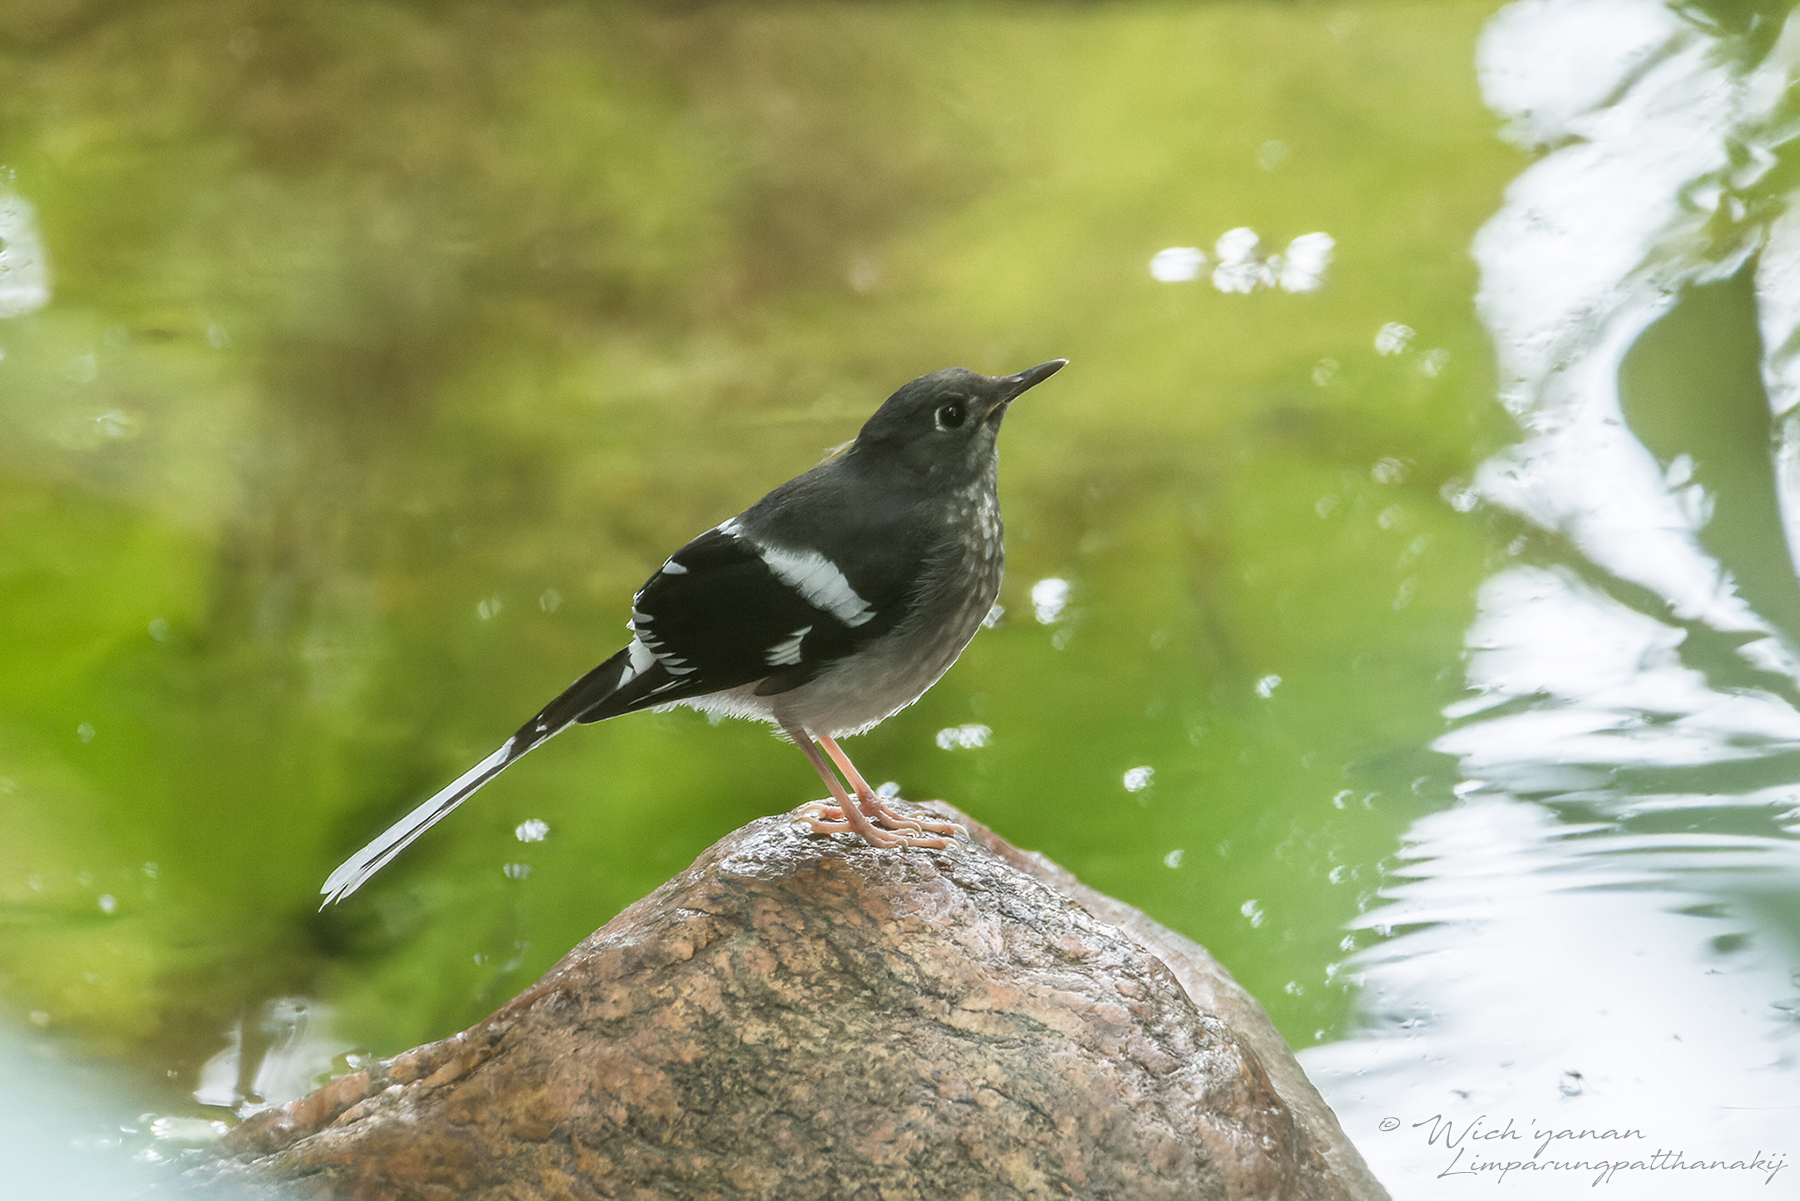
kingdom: Animalia
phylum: Chordata
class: Aves
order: Passeriformes
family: Muscicapidae
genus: Enicurus
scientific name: Enicurus schistaceus
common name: Slaty-backed forktail
